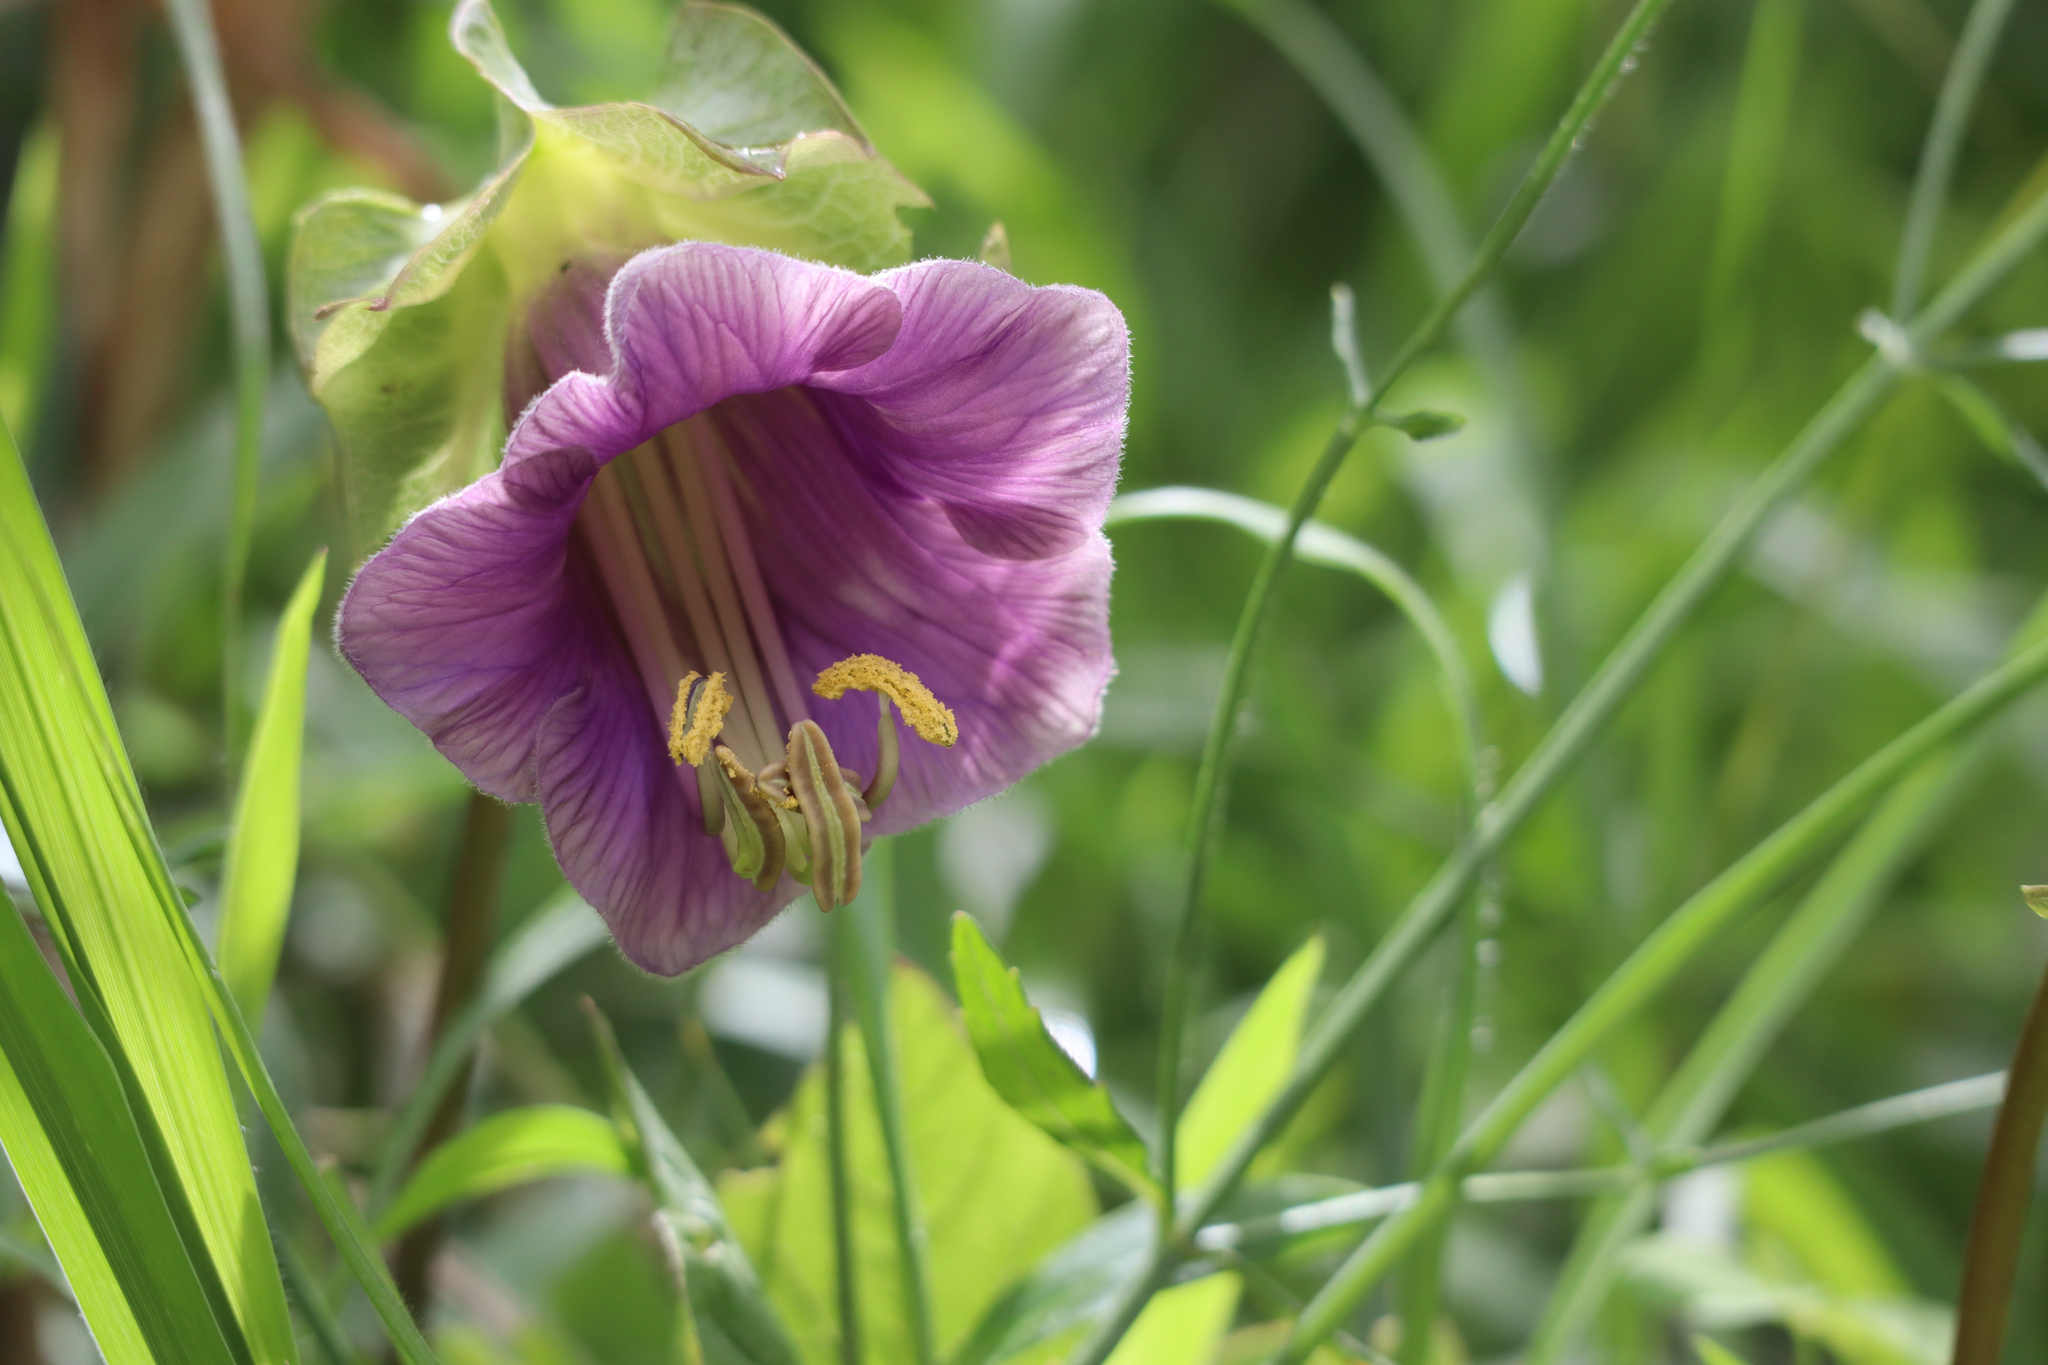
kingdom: Plantae
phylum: Tracheophyta
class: Magnoliopsida
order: Ericales
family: Polemoniaceae
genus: Cobaea
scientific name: Cobaea scandens
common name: Cup-and-saucer-vine
